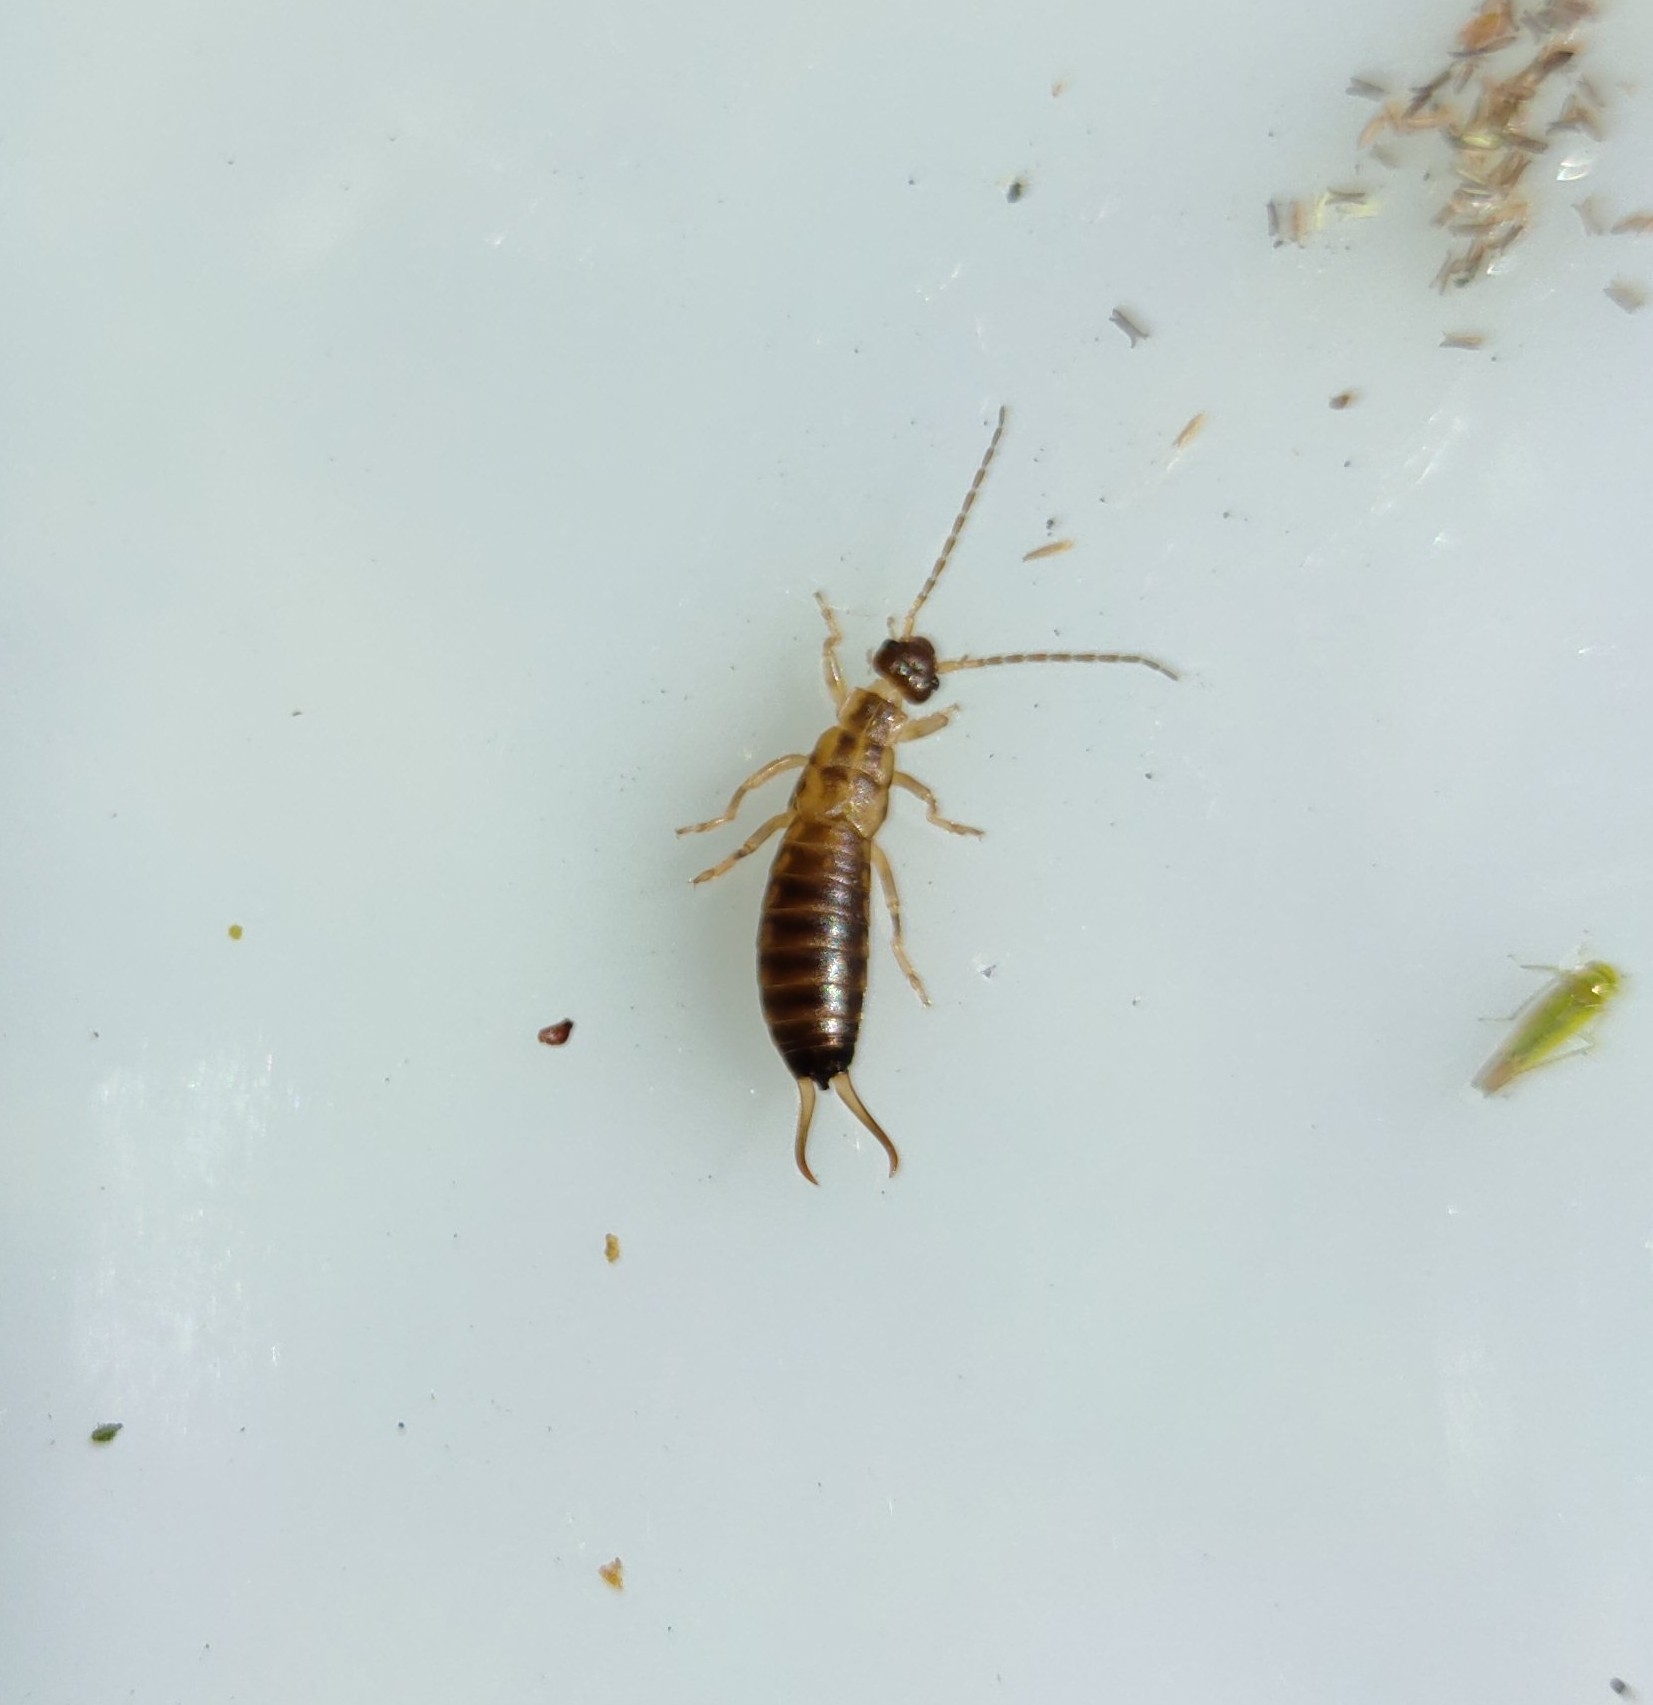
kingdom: Animalia
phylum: Arthropoda
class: Insecta
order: Dermaptera
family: Forficulidae
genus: Forficula
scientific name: Forficula
